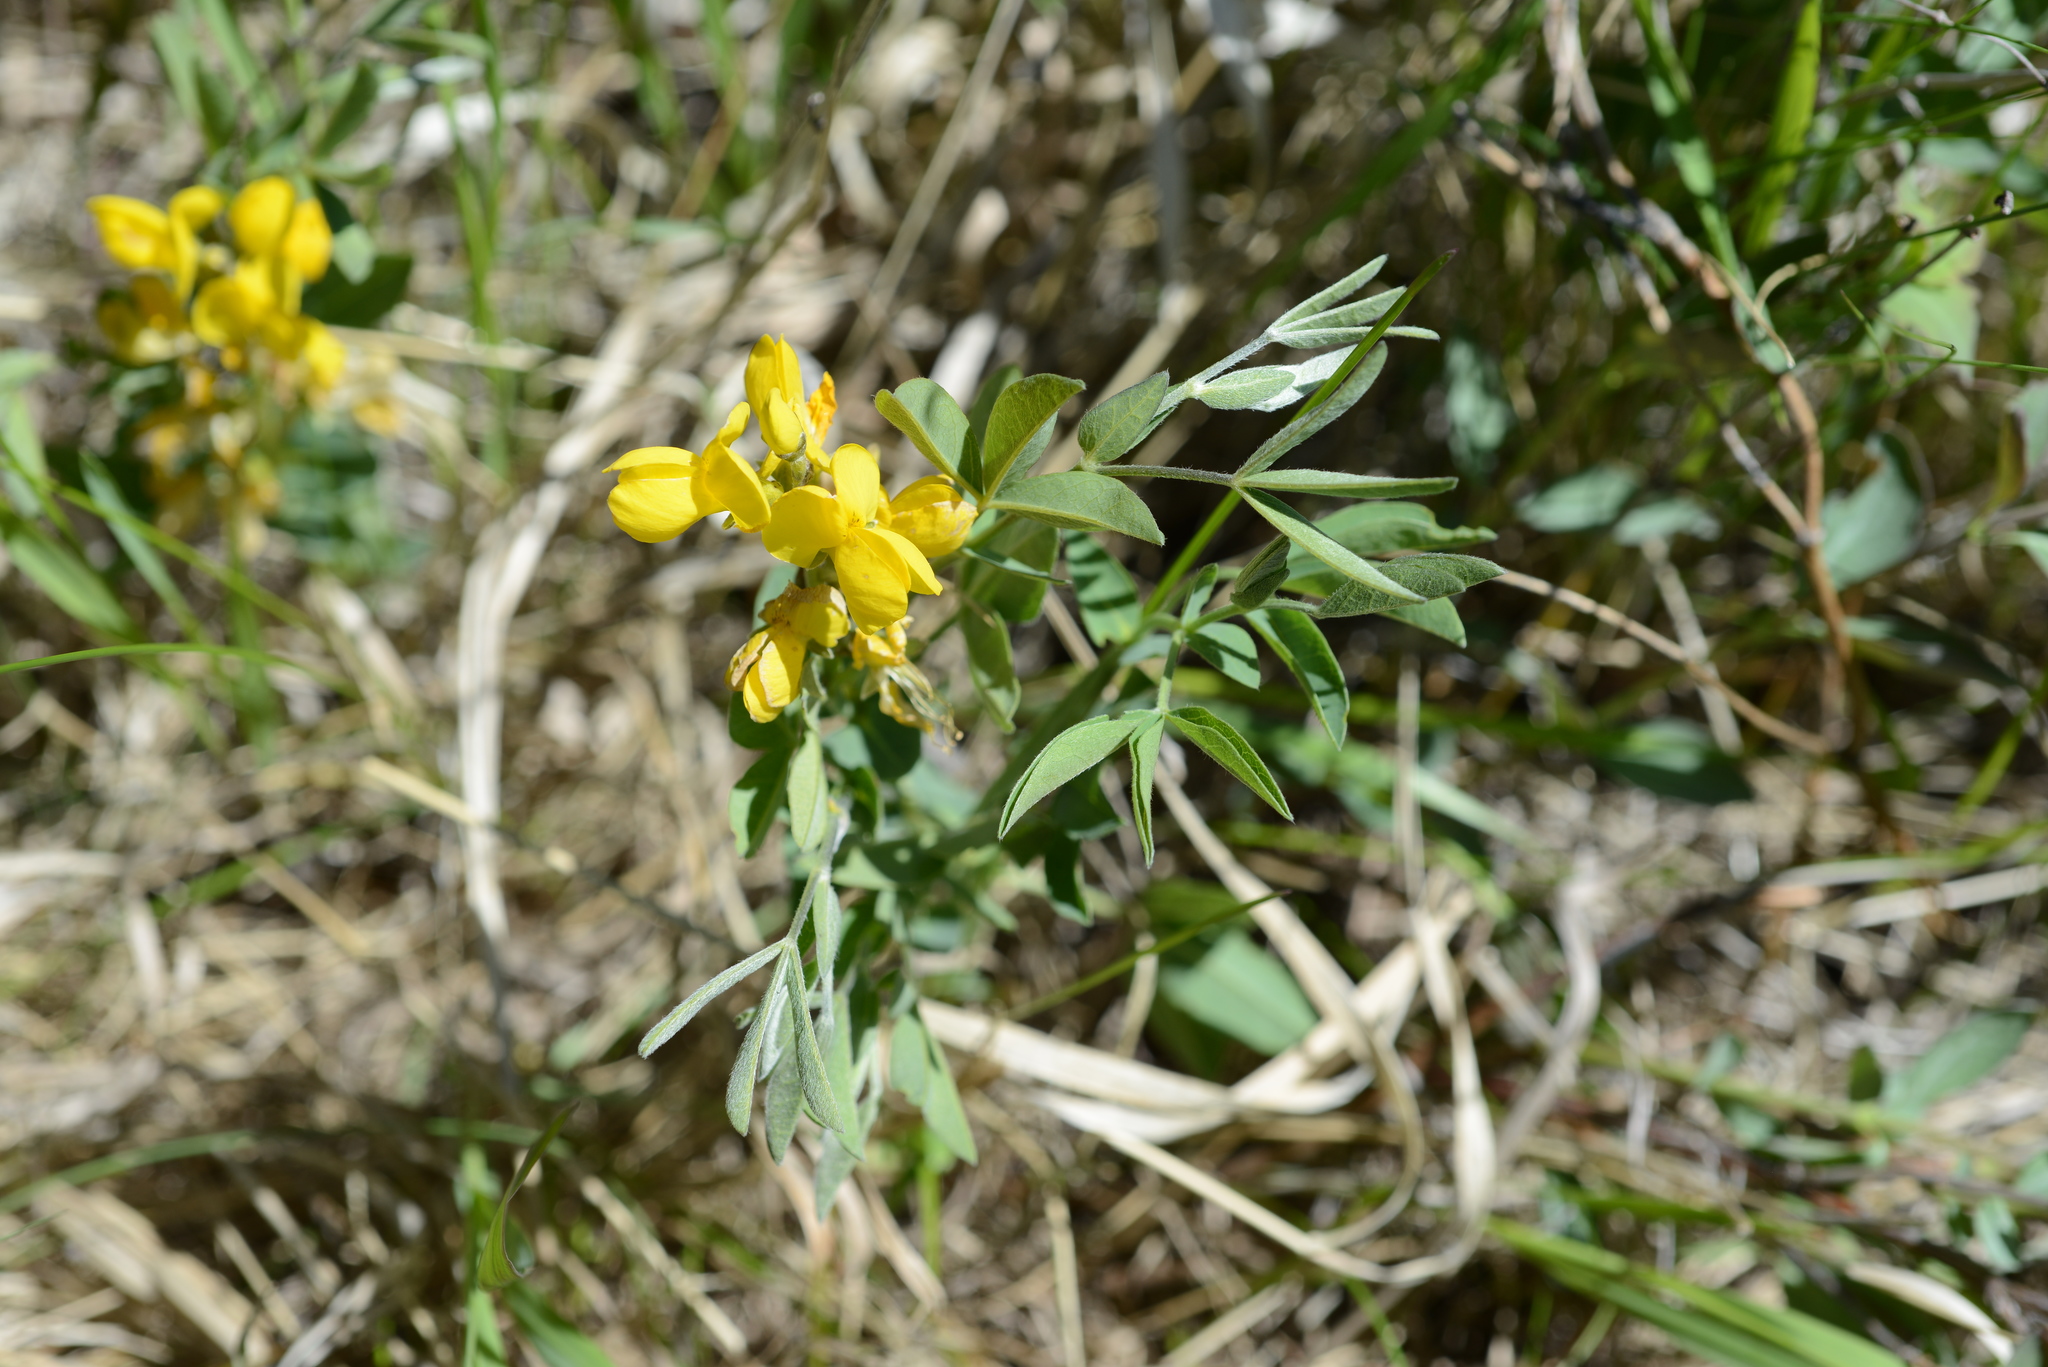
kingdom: Plantae
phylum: Tracheophyta
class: Magnoliopsida
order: Fabales
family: Fabaceae
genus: Thermopsis
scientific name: Thermopsis rhombifolia
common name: Circle-pod-pea
